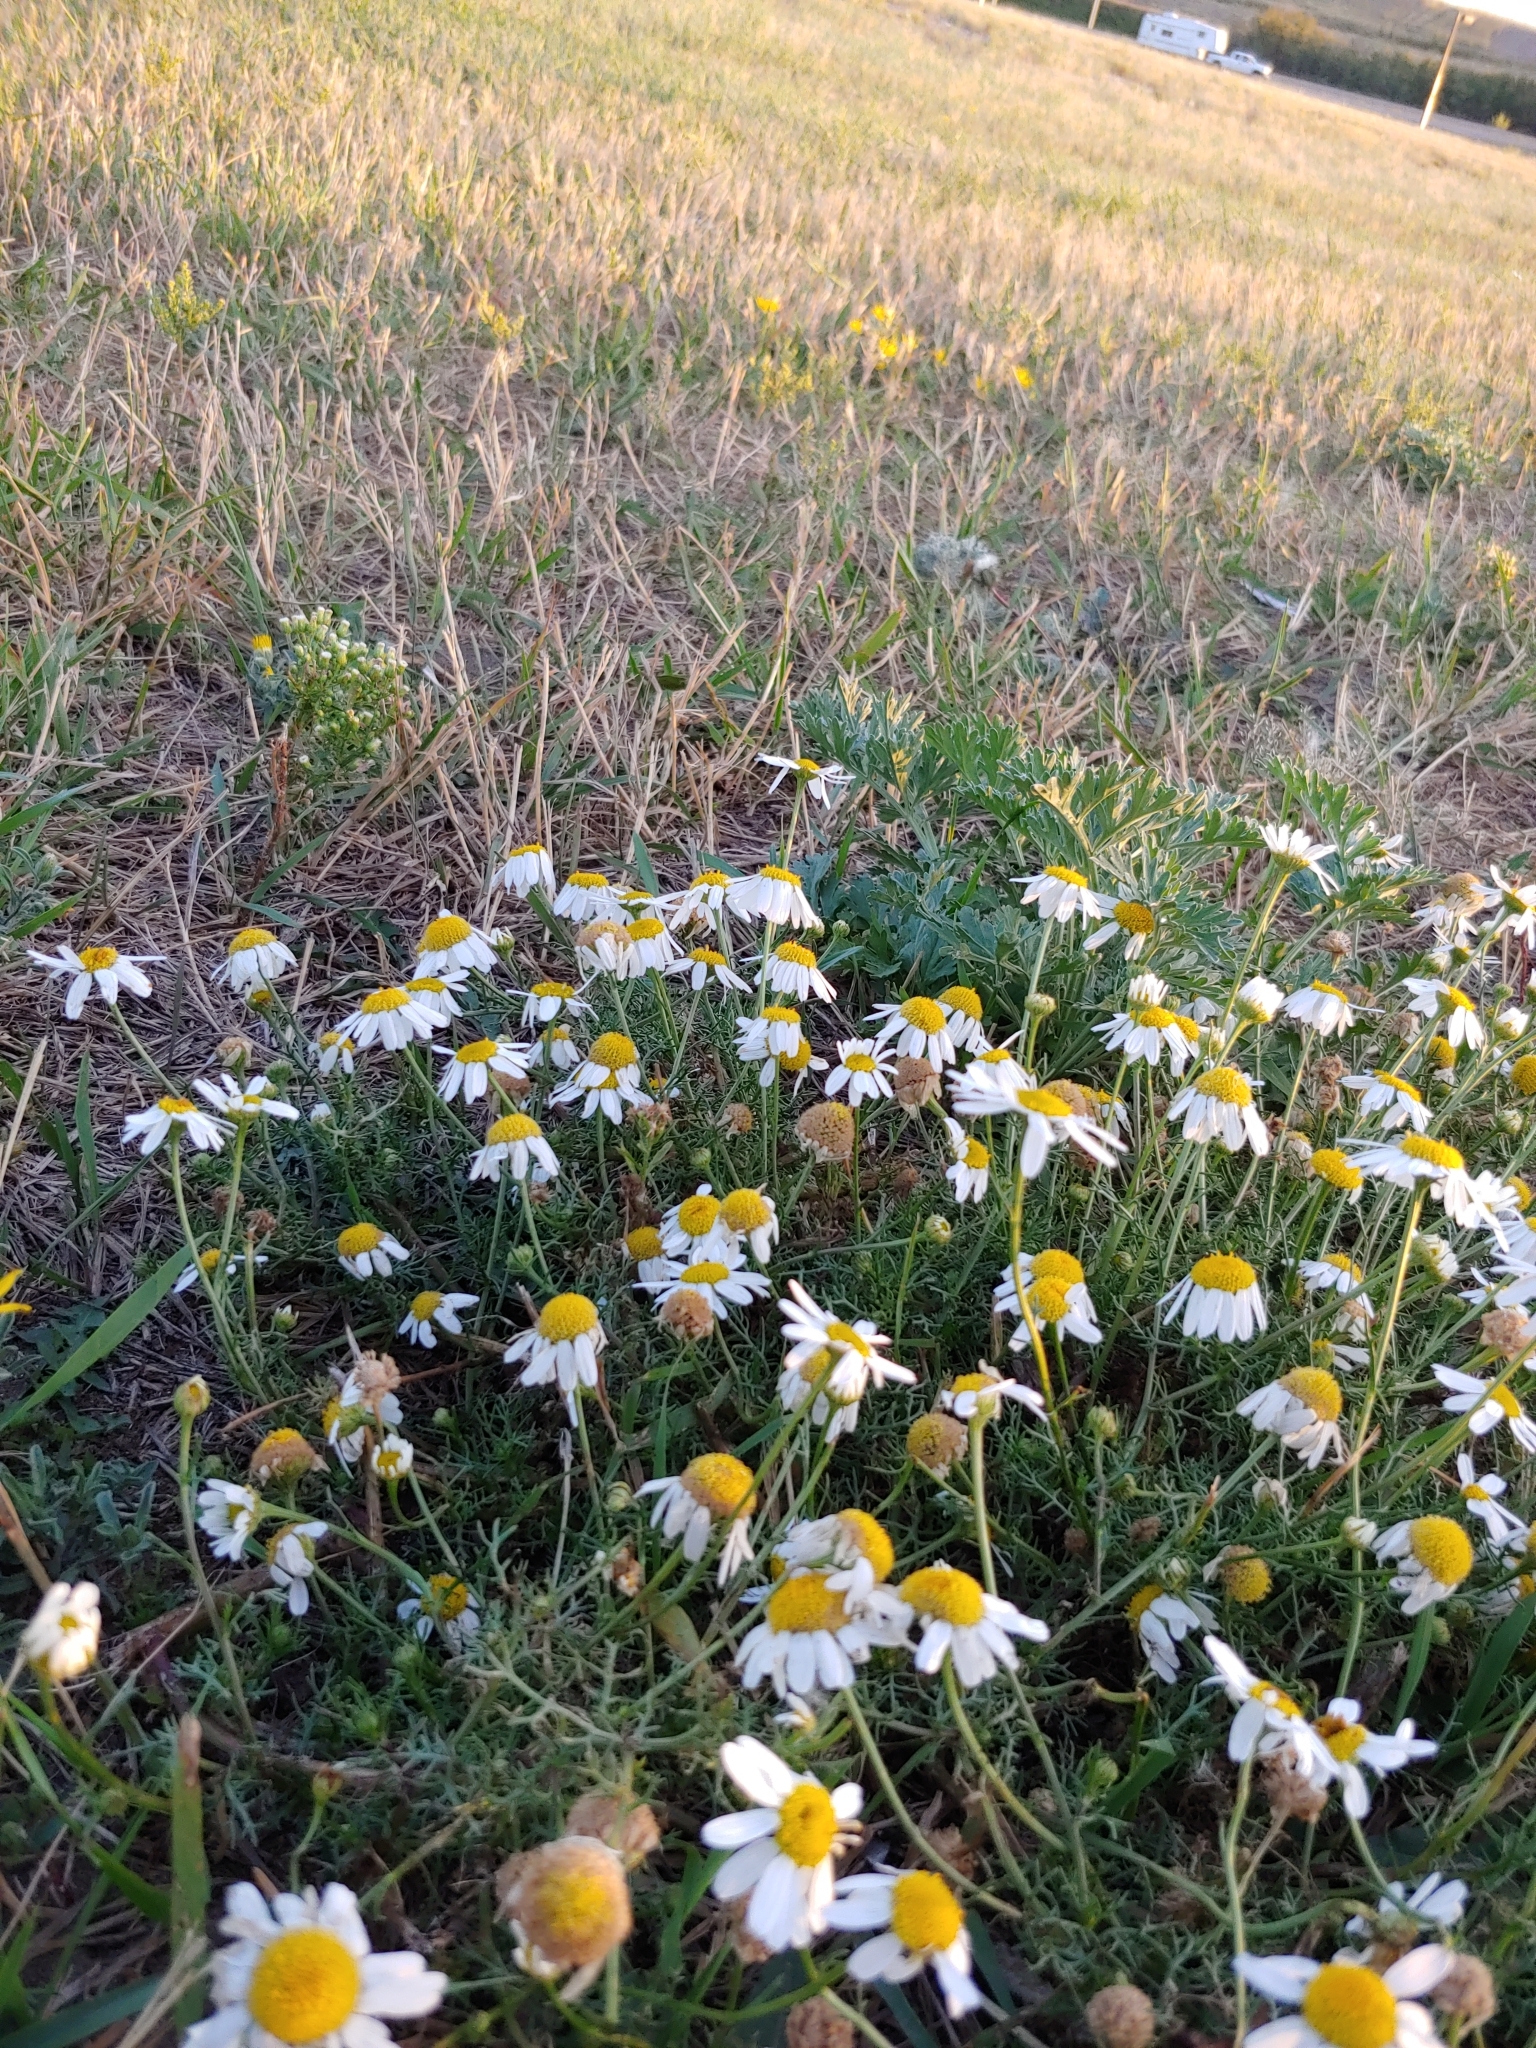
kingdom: Plantae
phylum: Tracheophyta
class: Magnoliopsida
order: Asterales
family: Asteraceae
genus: Tripleurospermum
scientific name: Tripleurospermum inodorum
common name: Scentless mayweed
